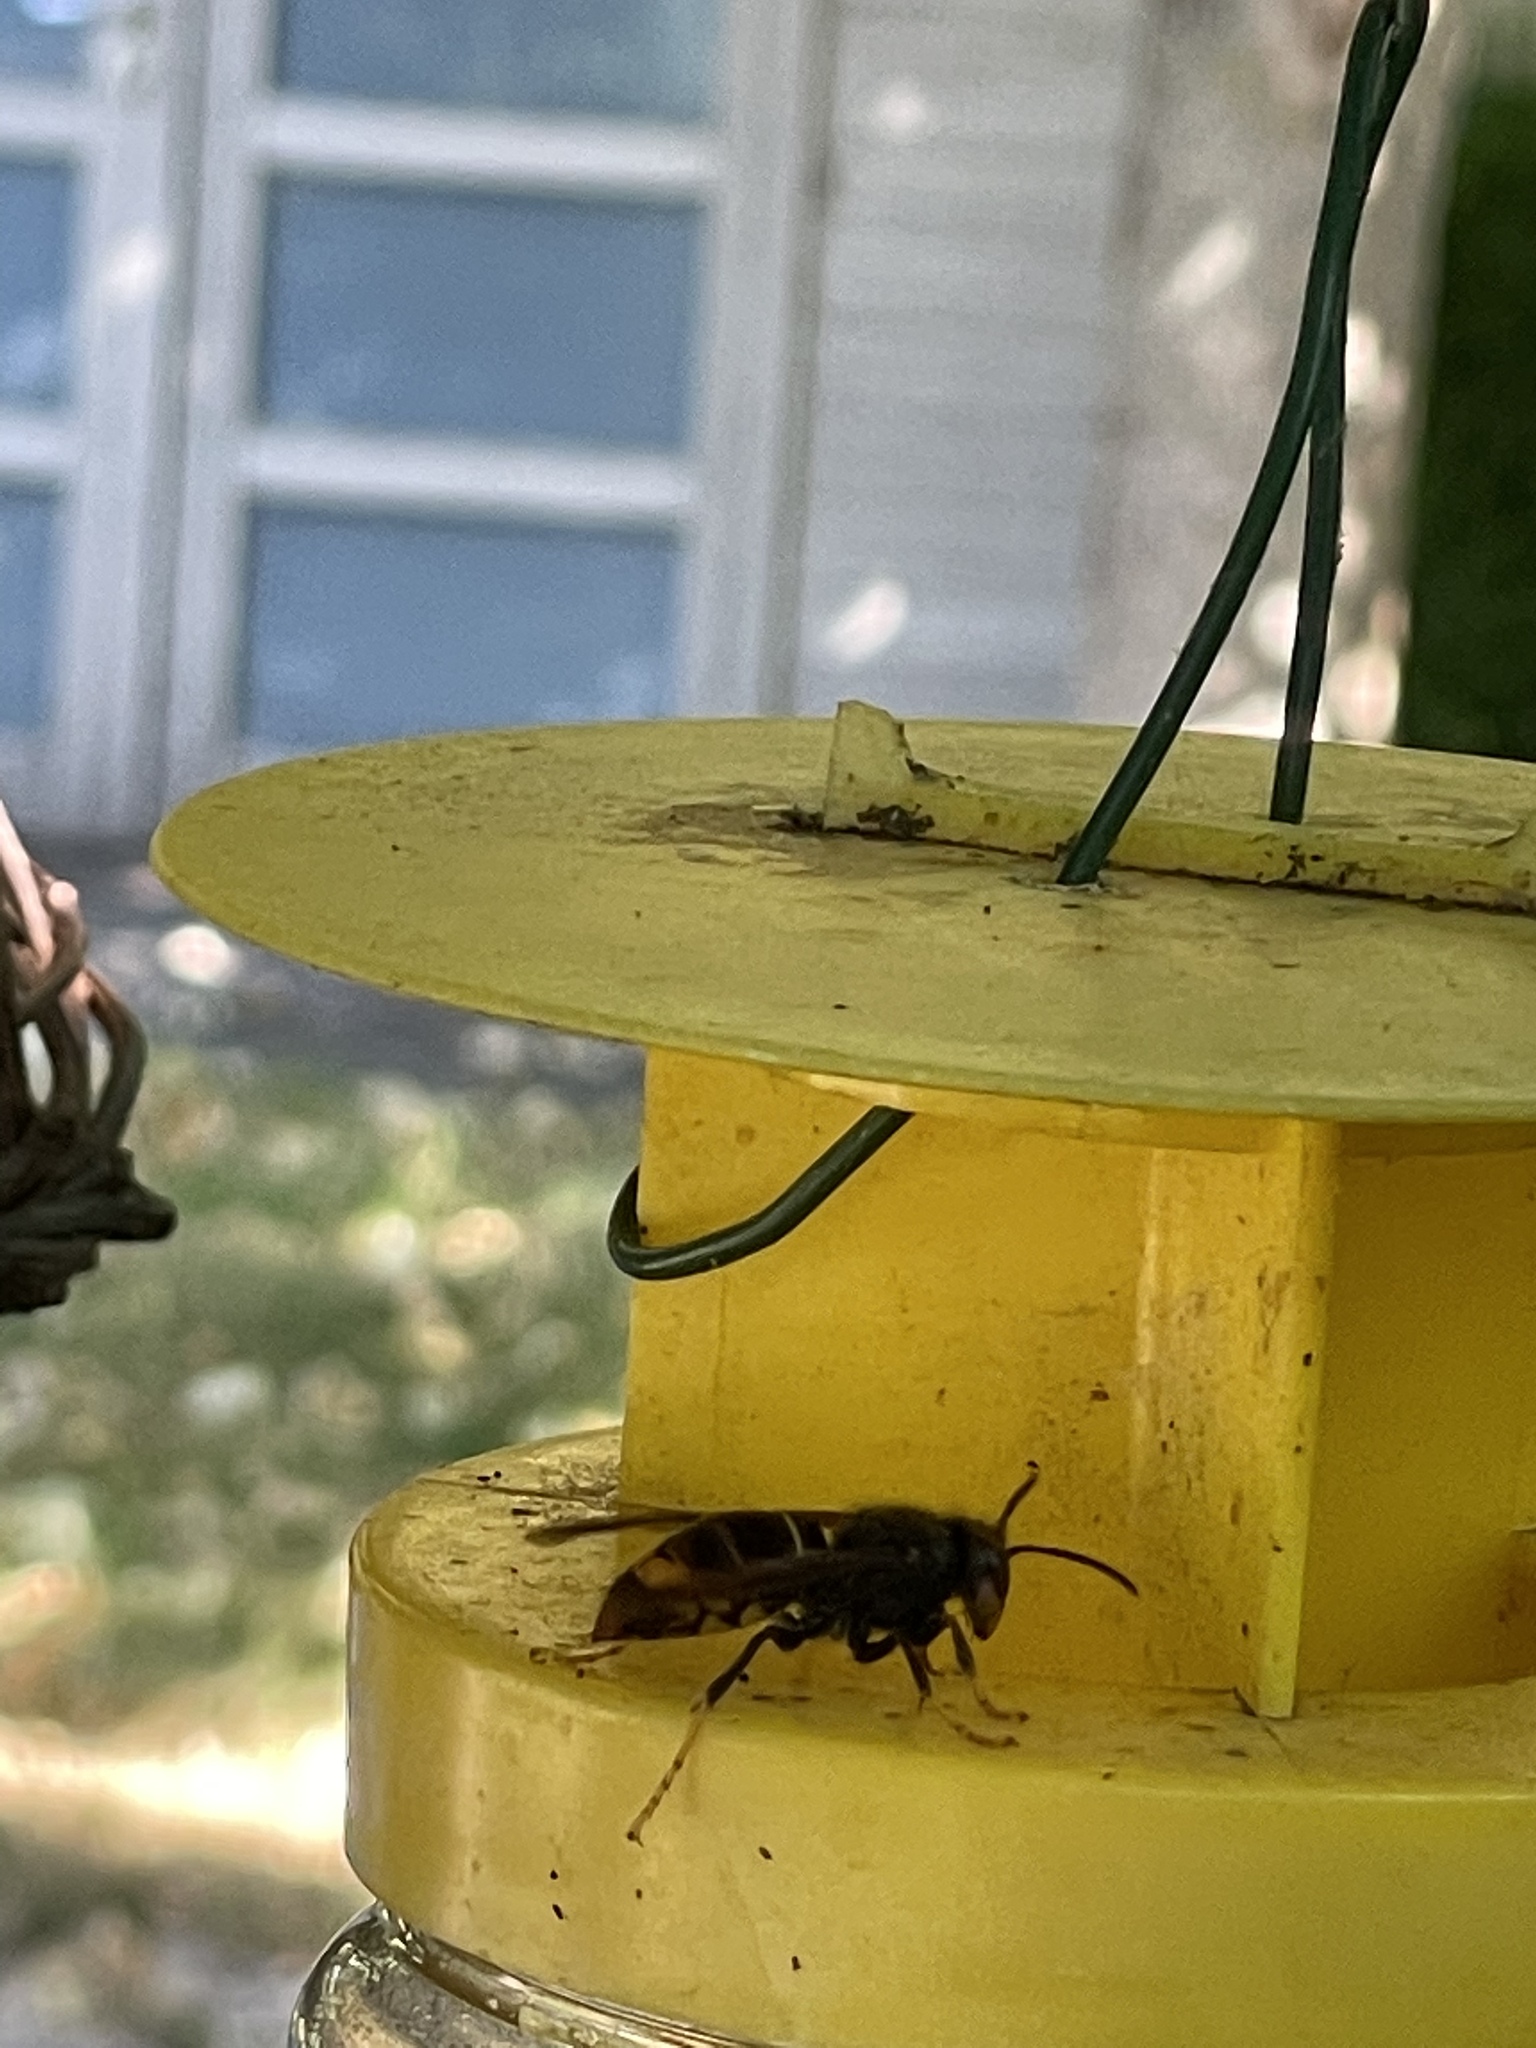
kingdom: Animalia
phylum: Arthropoda
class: Insecta
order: Hymenoptera
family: Vespidae
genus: Vespa
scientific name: Vespa velutina
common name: Asian hornet
